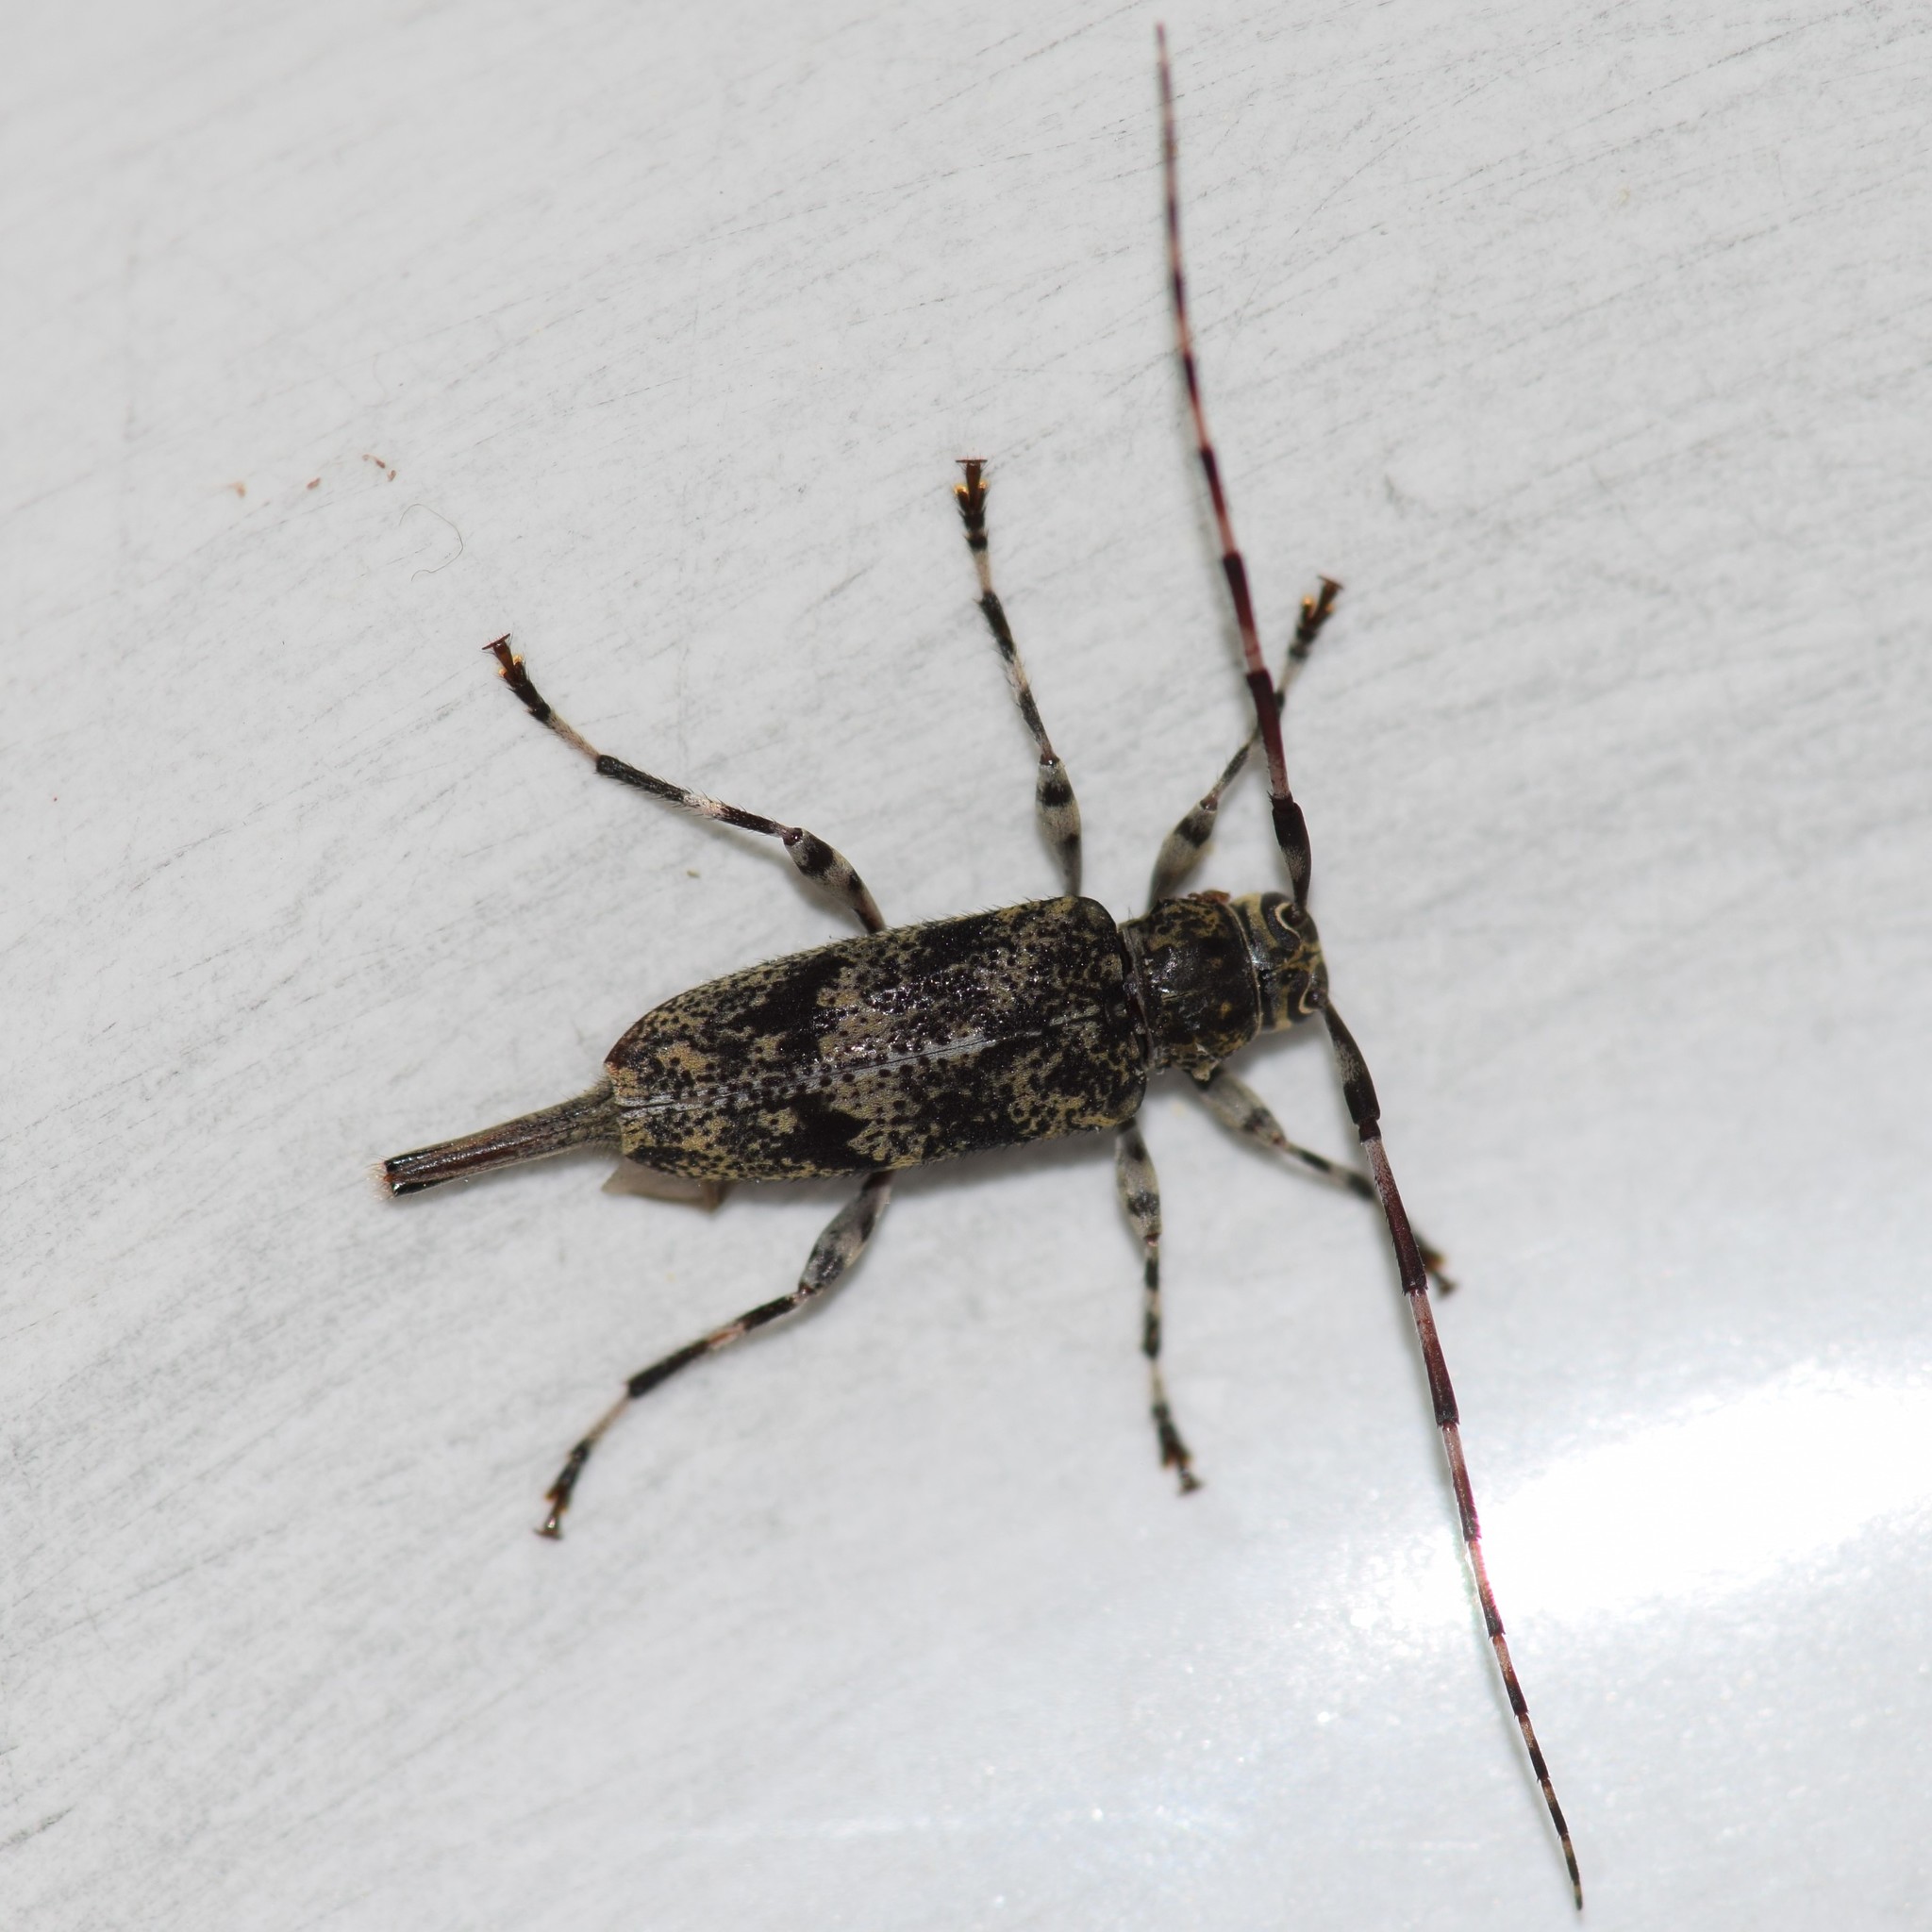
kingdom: Animalia
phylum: Arthropoda
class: Insecta
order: Coleoptera
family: Cerambycidae
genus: Graphisurus
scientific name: Graphisurus fasciatus
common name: Banded graphisurus
